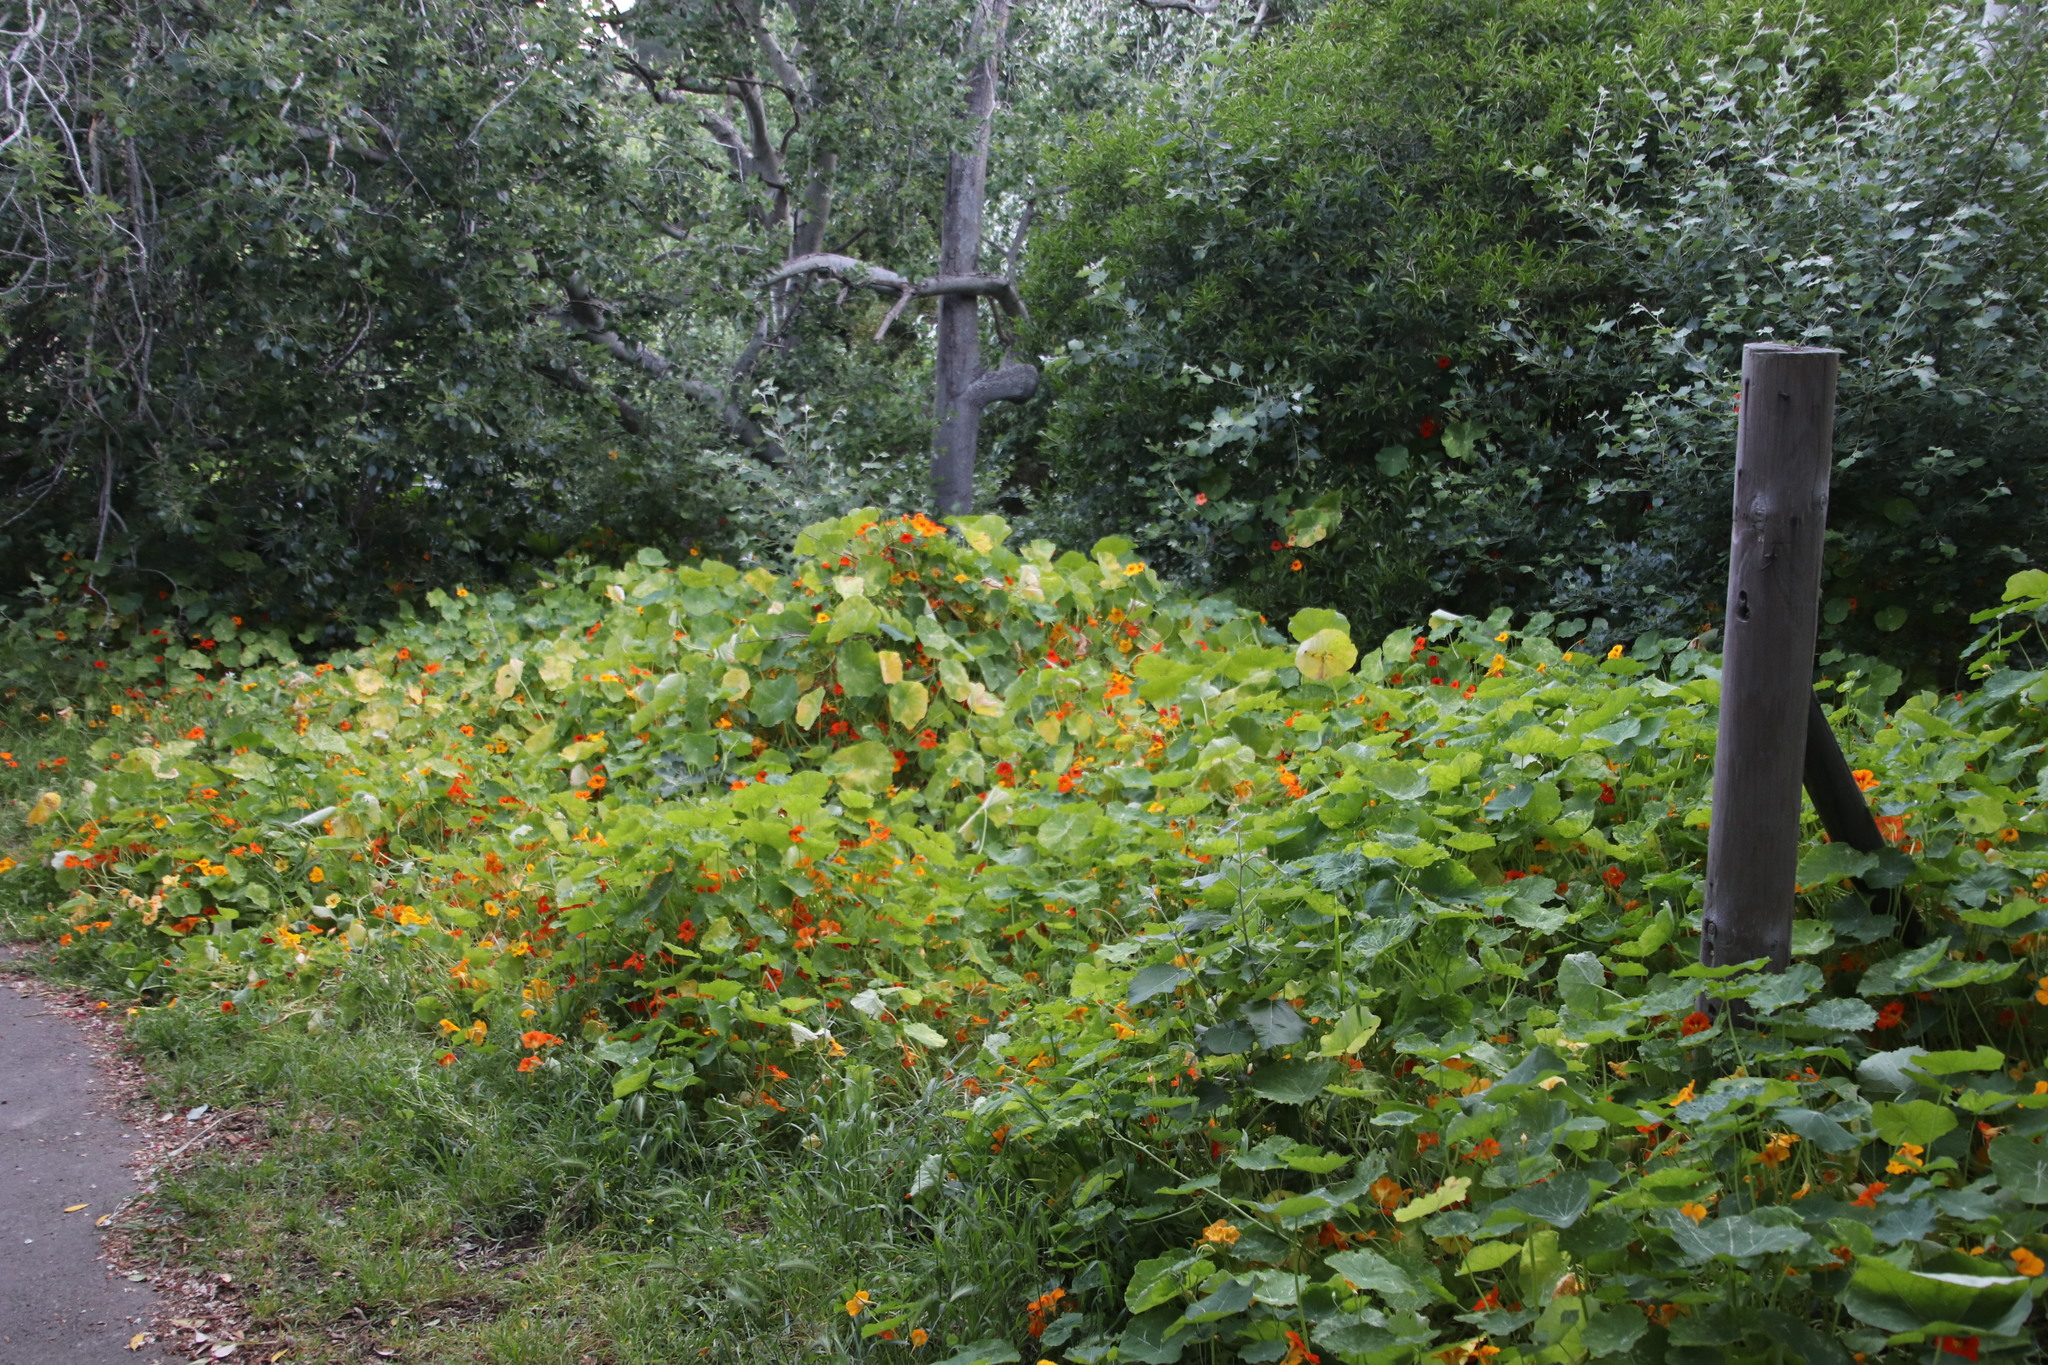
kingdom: Plantae
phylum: Tracheophyta
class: Magnoliopsida
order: Brassicales
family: Tropaeolaceae
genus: Tropaeolum
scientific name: Tropaeolum majus
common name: Nasturtium
